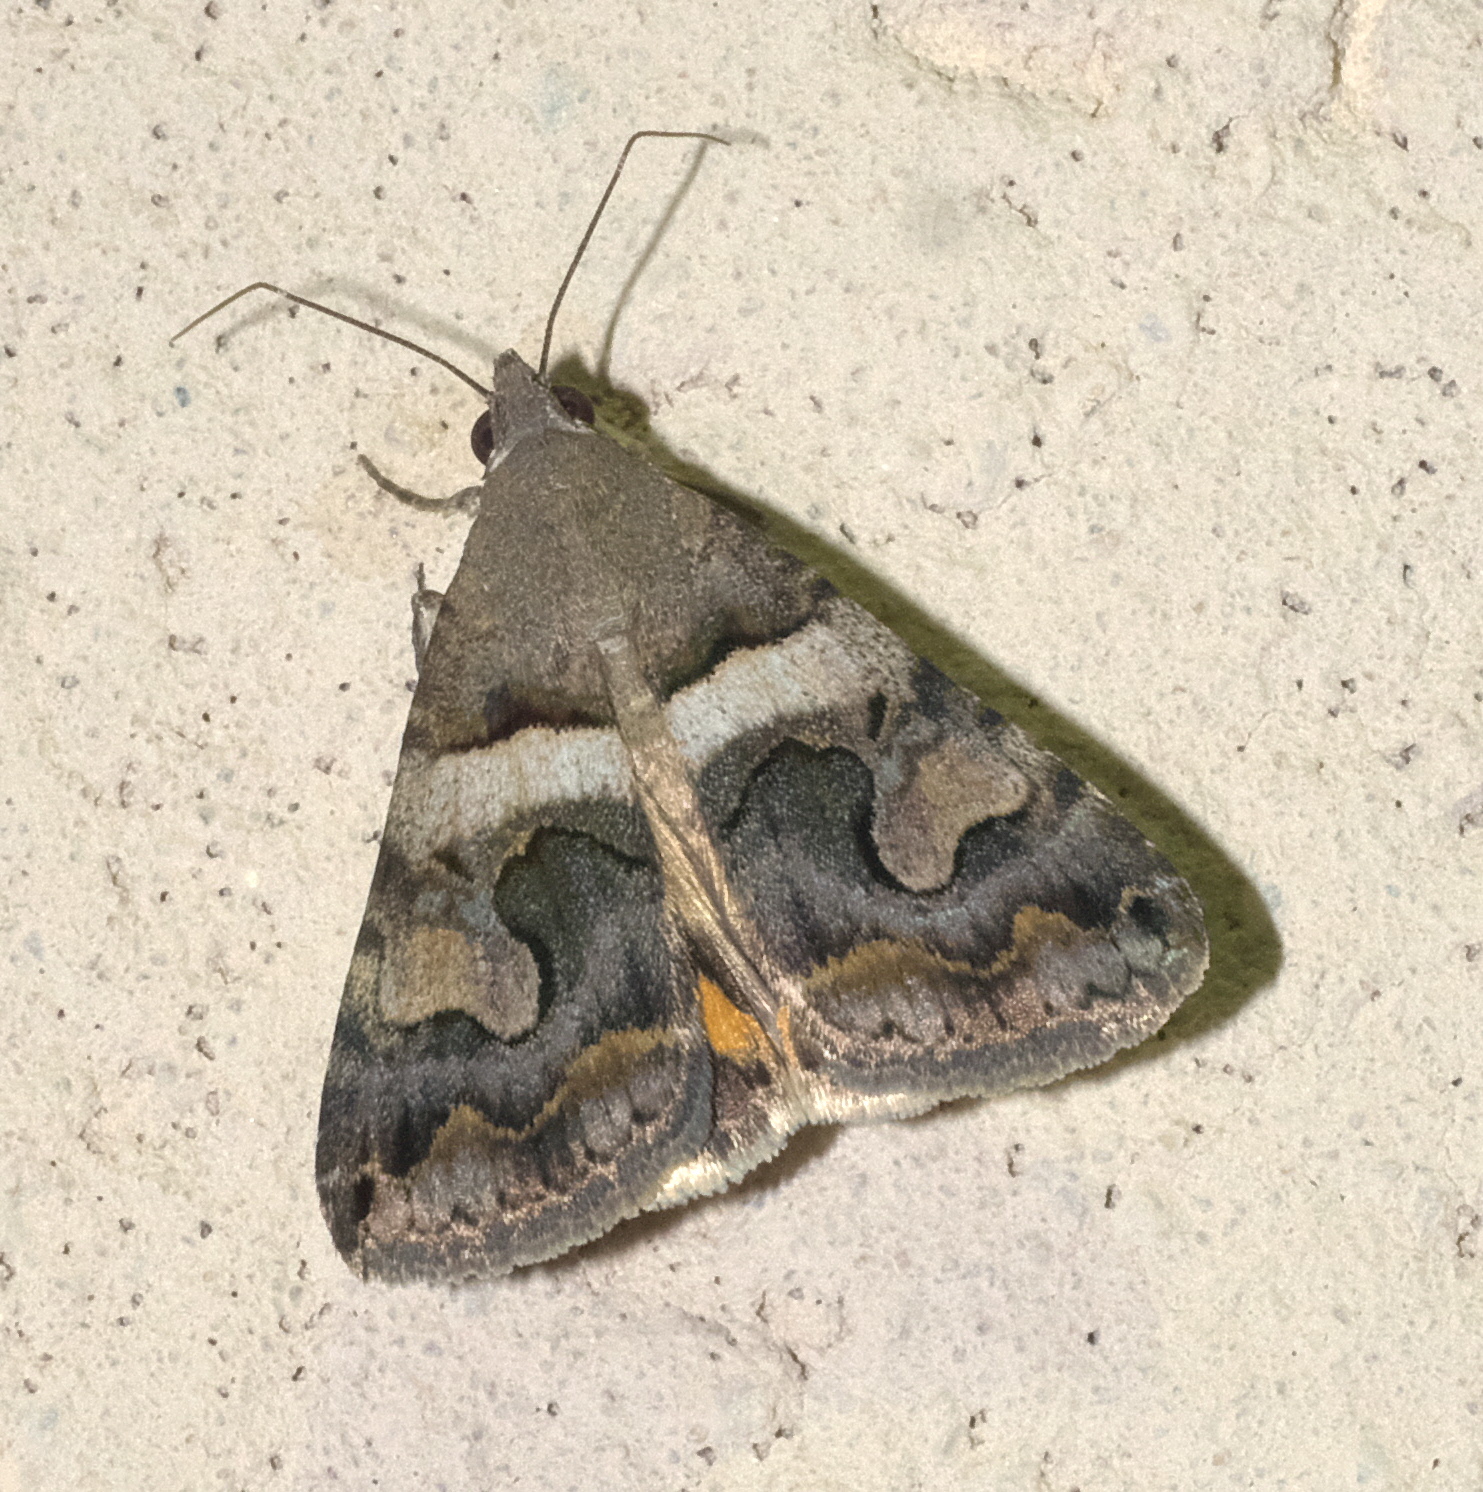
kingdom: Animalia
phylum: Arthropoda
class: Insecta
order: Lepidoptera
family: Erebidae
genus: Bulia
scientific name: Bulia deducta
